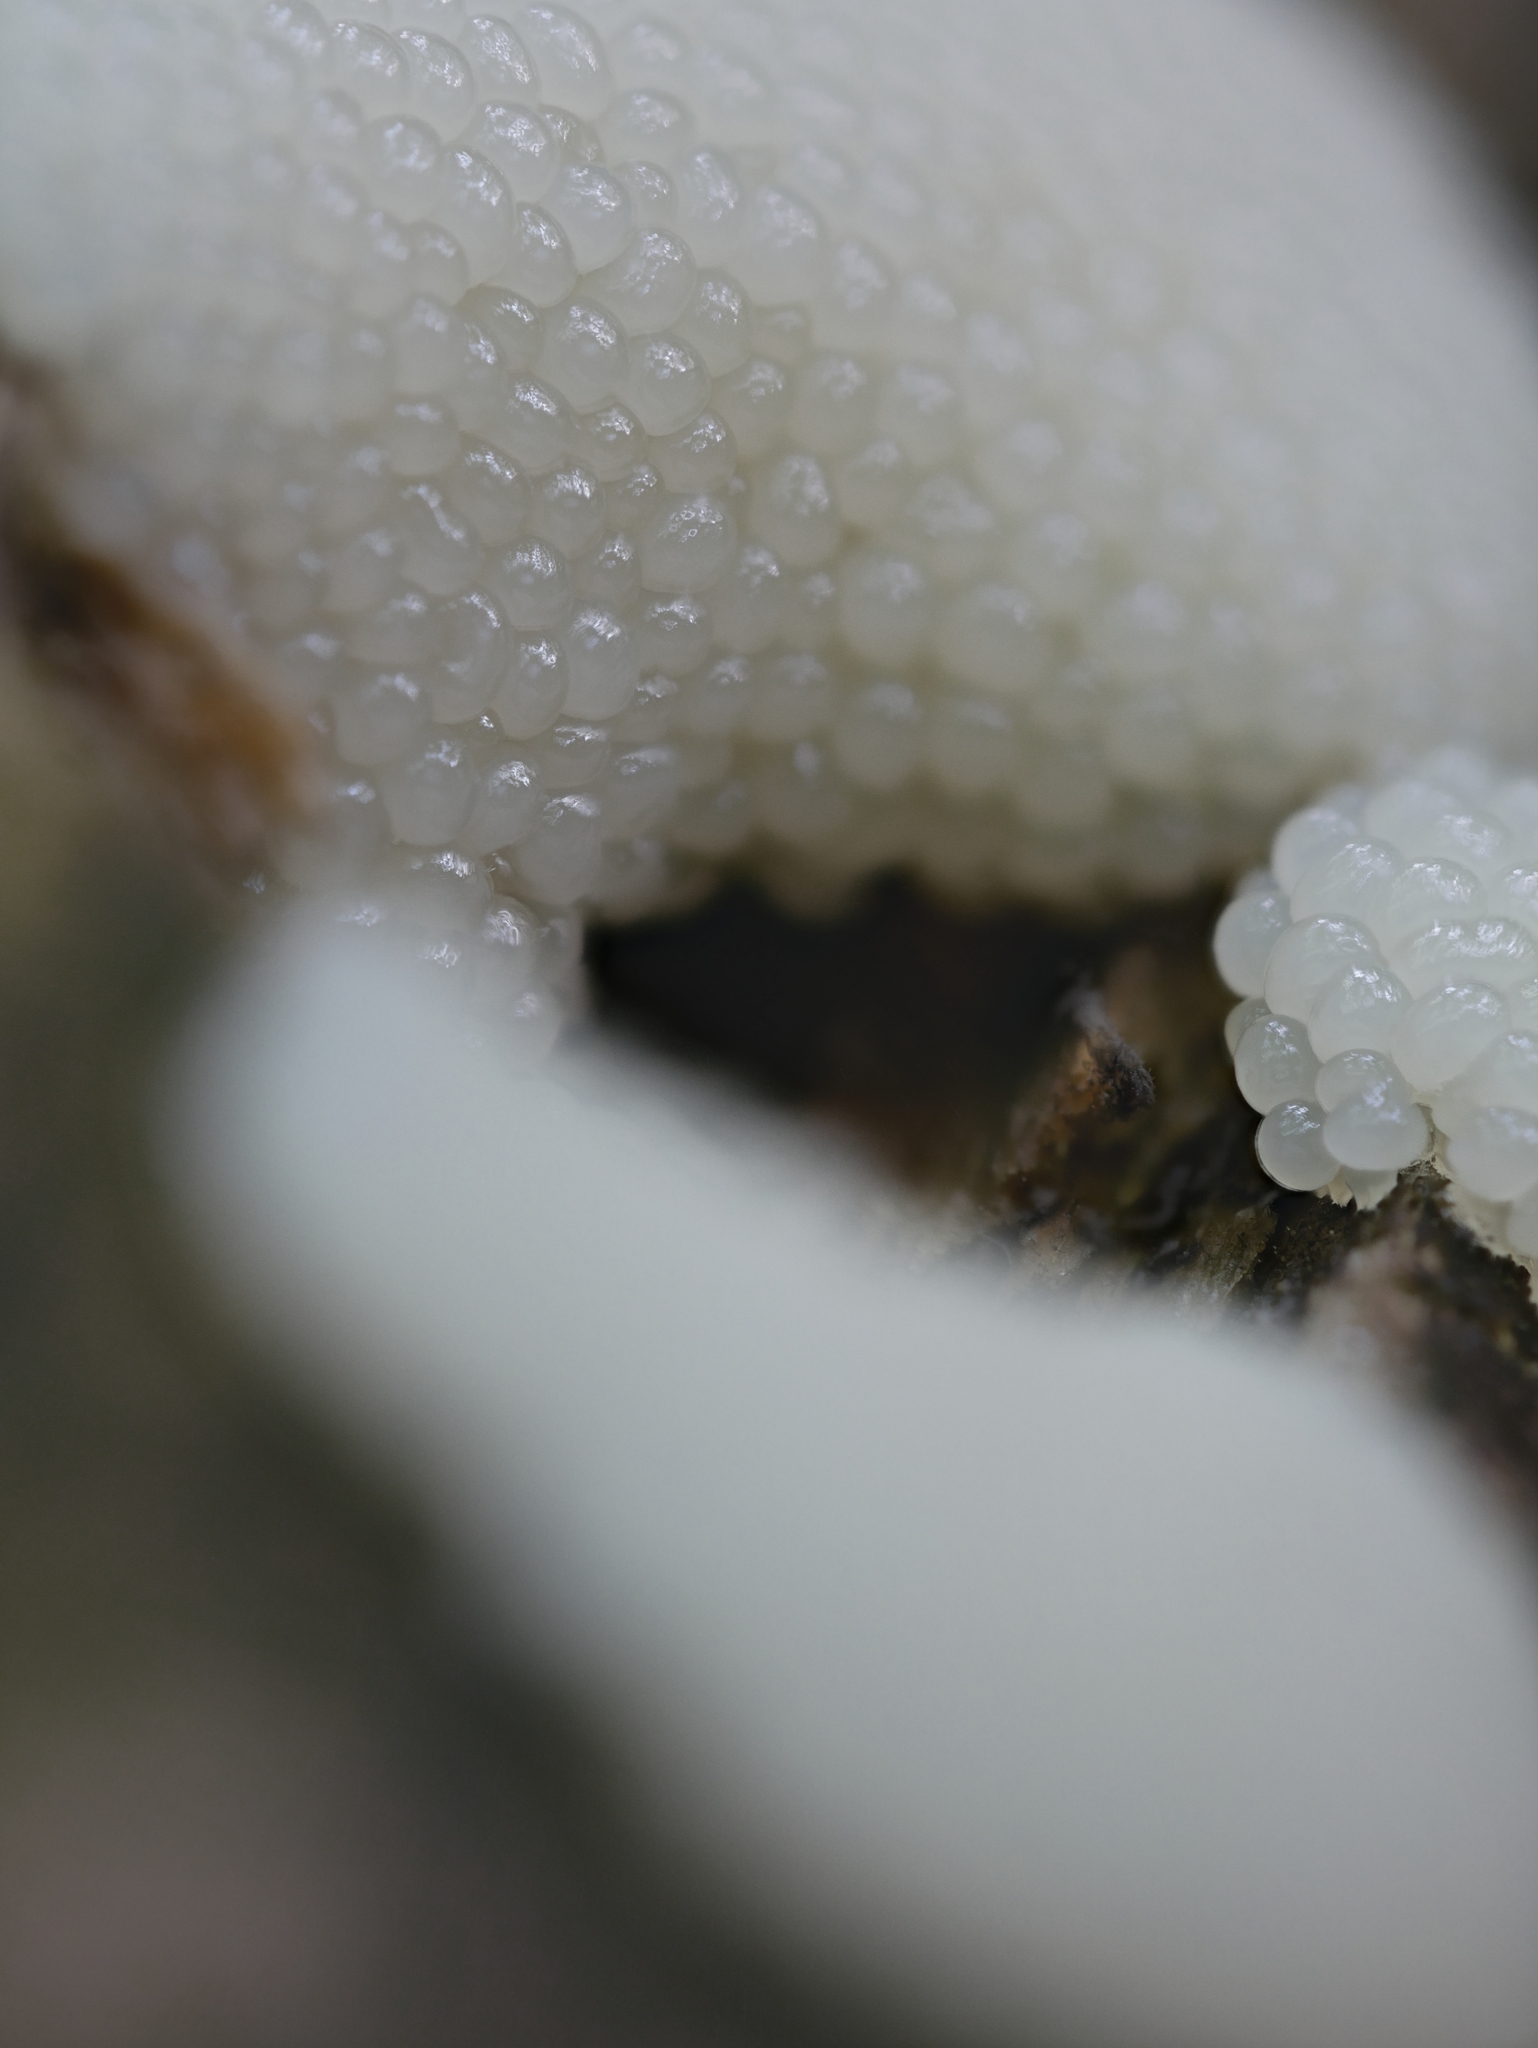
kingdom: Protozoa
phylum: Mycetozoa
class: Myxomycetes
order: Stemonitidales
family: Stemonitidaceae
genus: Stemonitis
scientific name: Stemonitis splendens
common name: Chocolate tube slime
